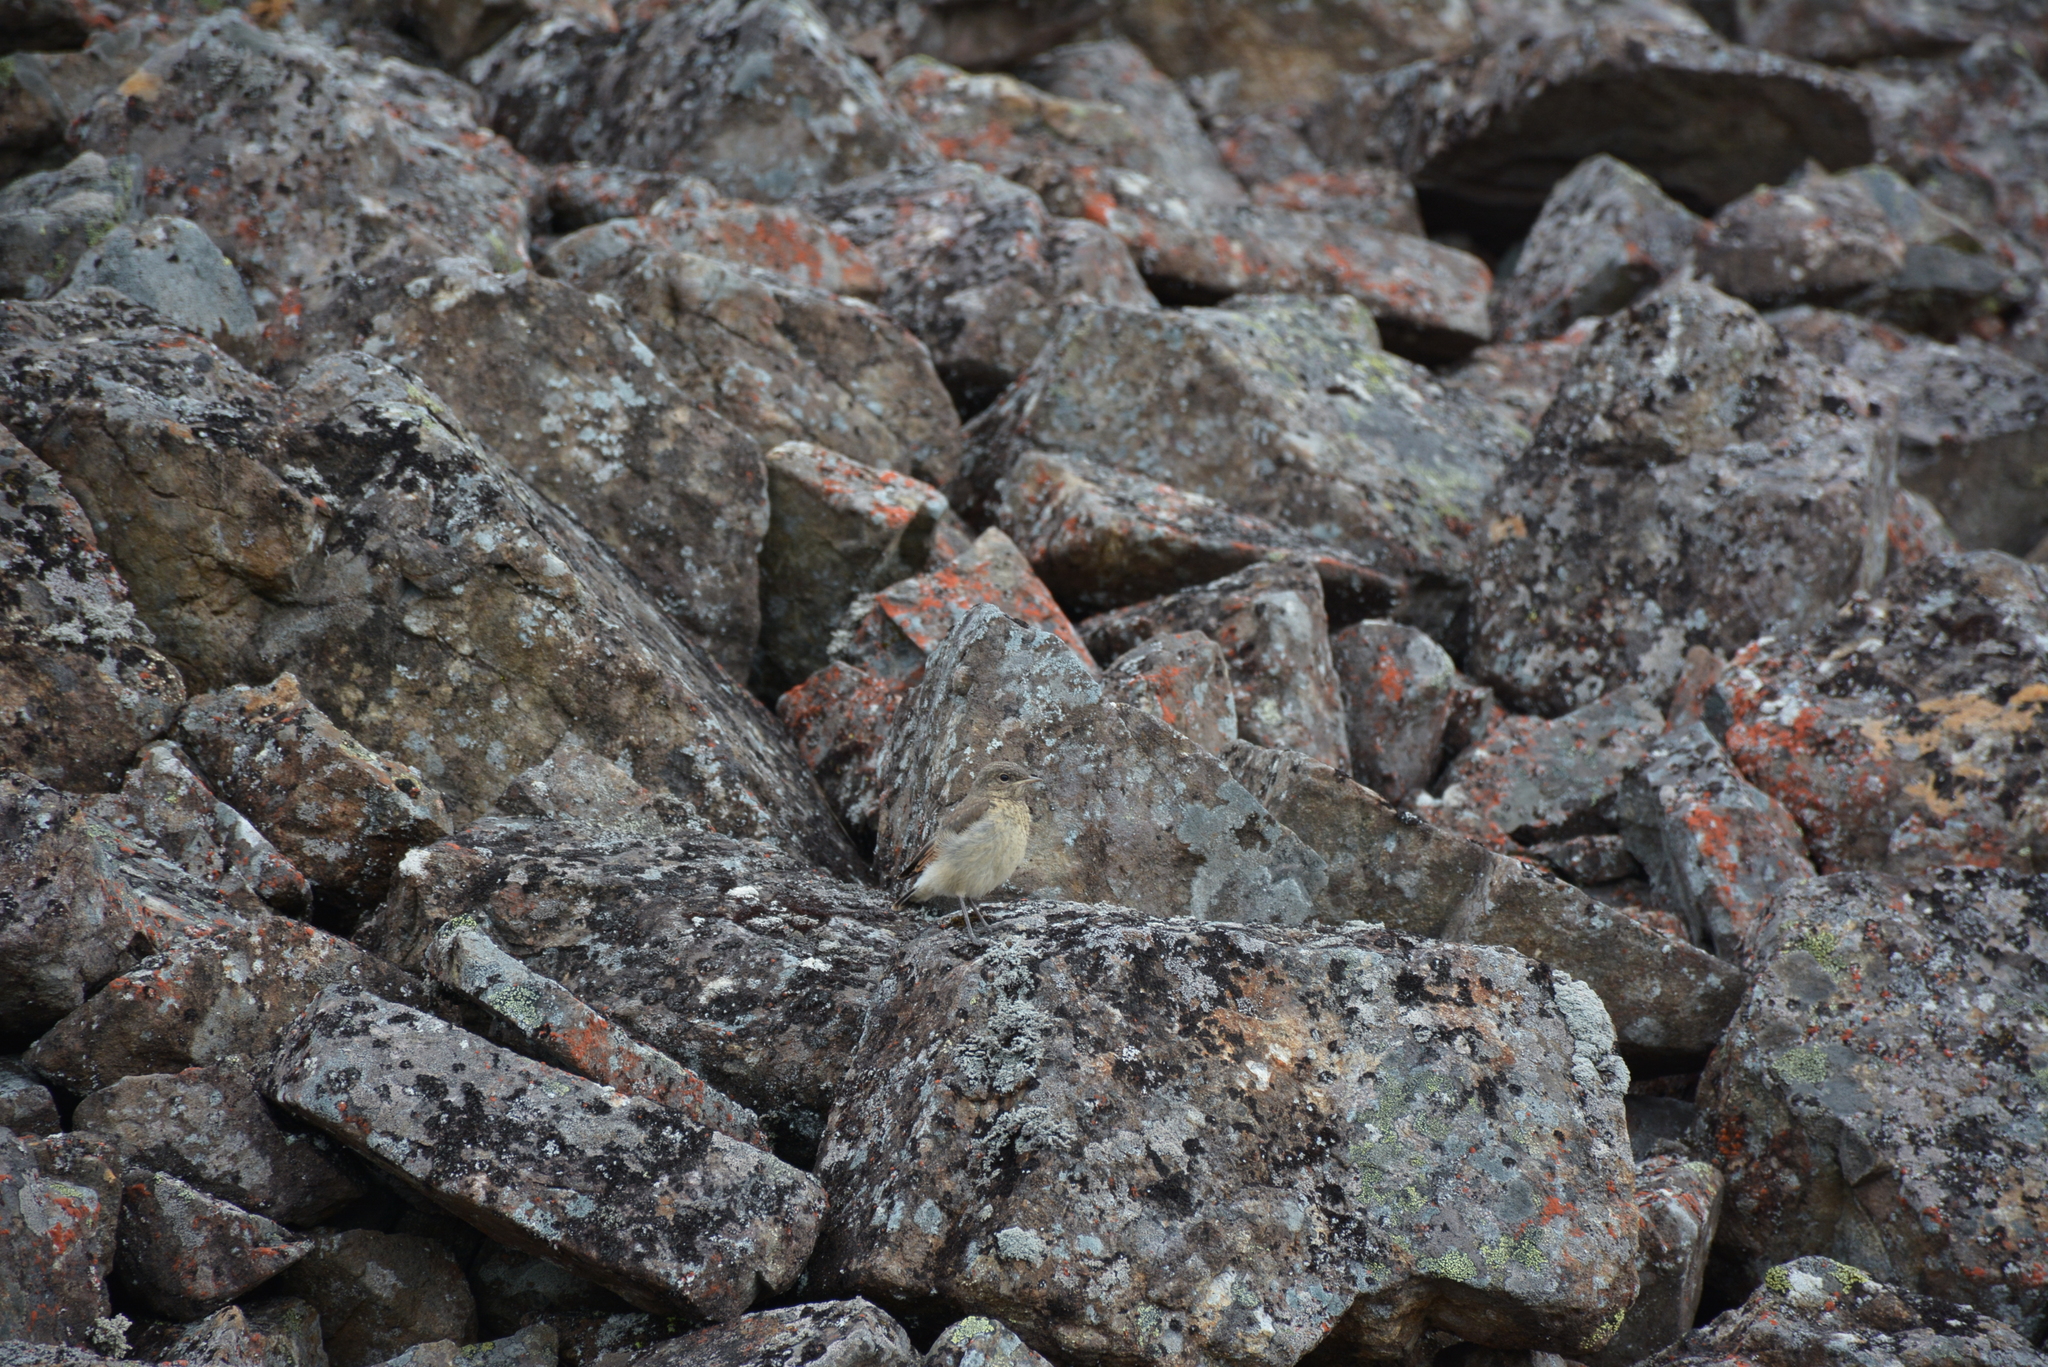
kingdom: Animalia
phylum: Chordata
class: Aves
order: Passeriformes
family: Muscicapidae
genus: Oenanthe
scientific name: Oenanthe oenanthe
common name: Northern wheatear
